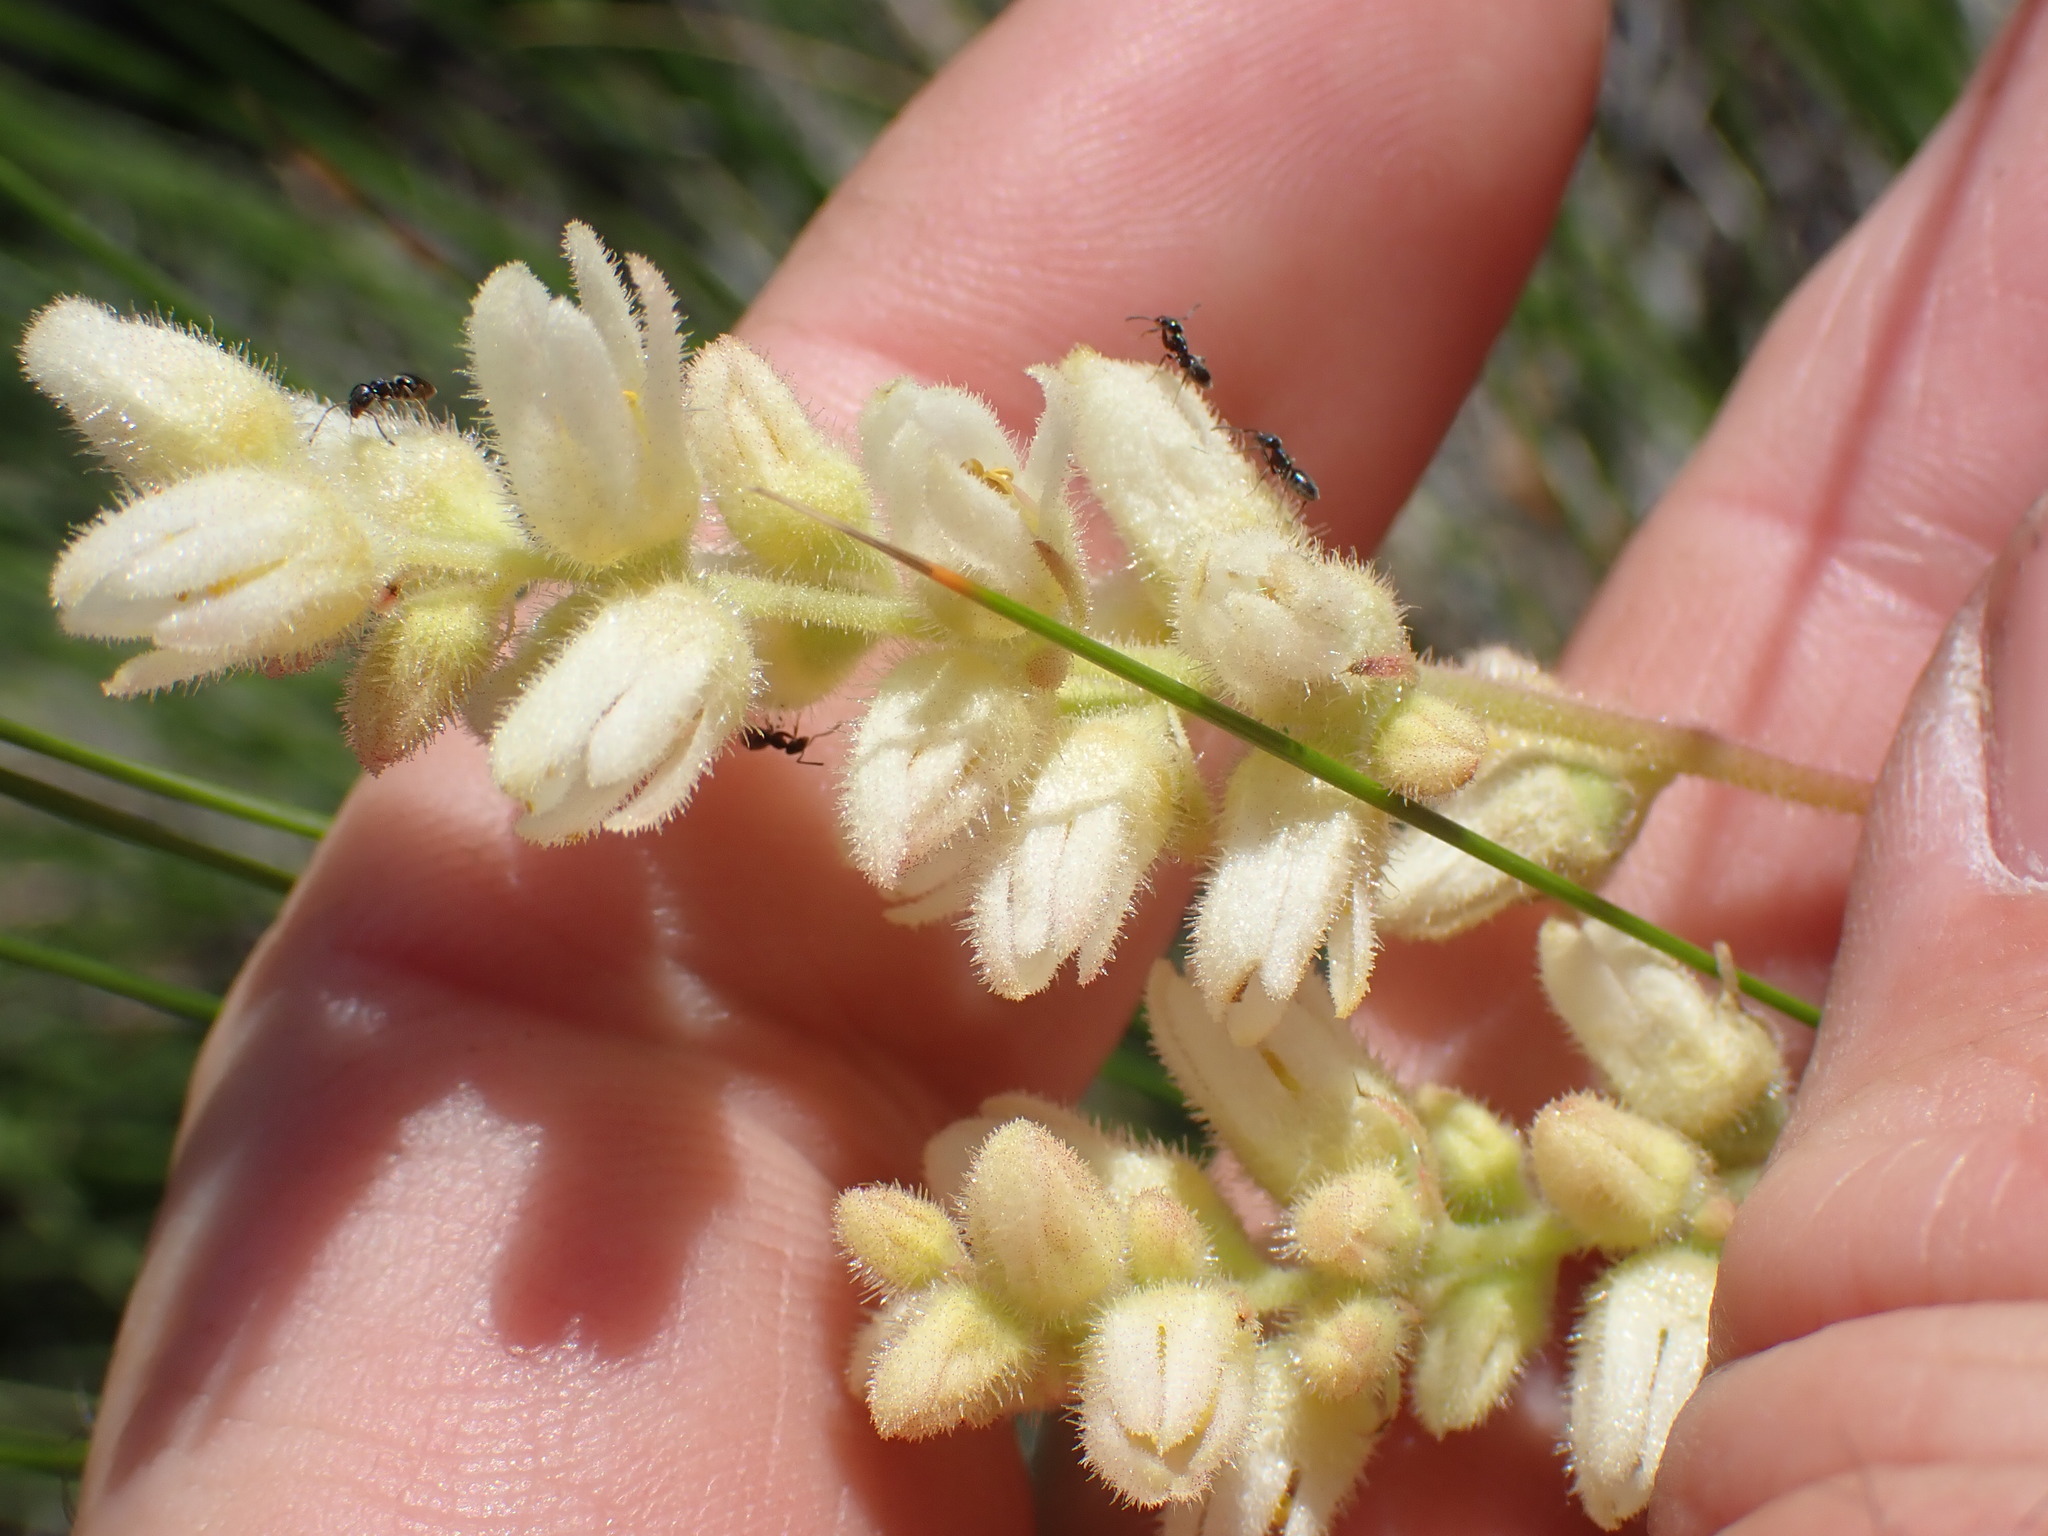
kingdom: Plantae
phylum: Tracheophyta
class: Magnoliopsida
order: Saxifragales
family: Saxifragaceae
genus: Heuchera
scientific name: Heuchera cylindrica
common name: Mat alumroot
